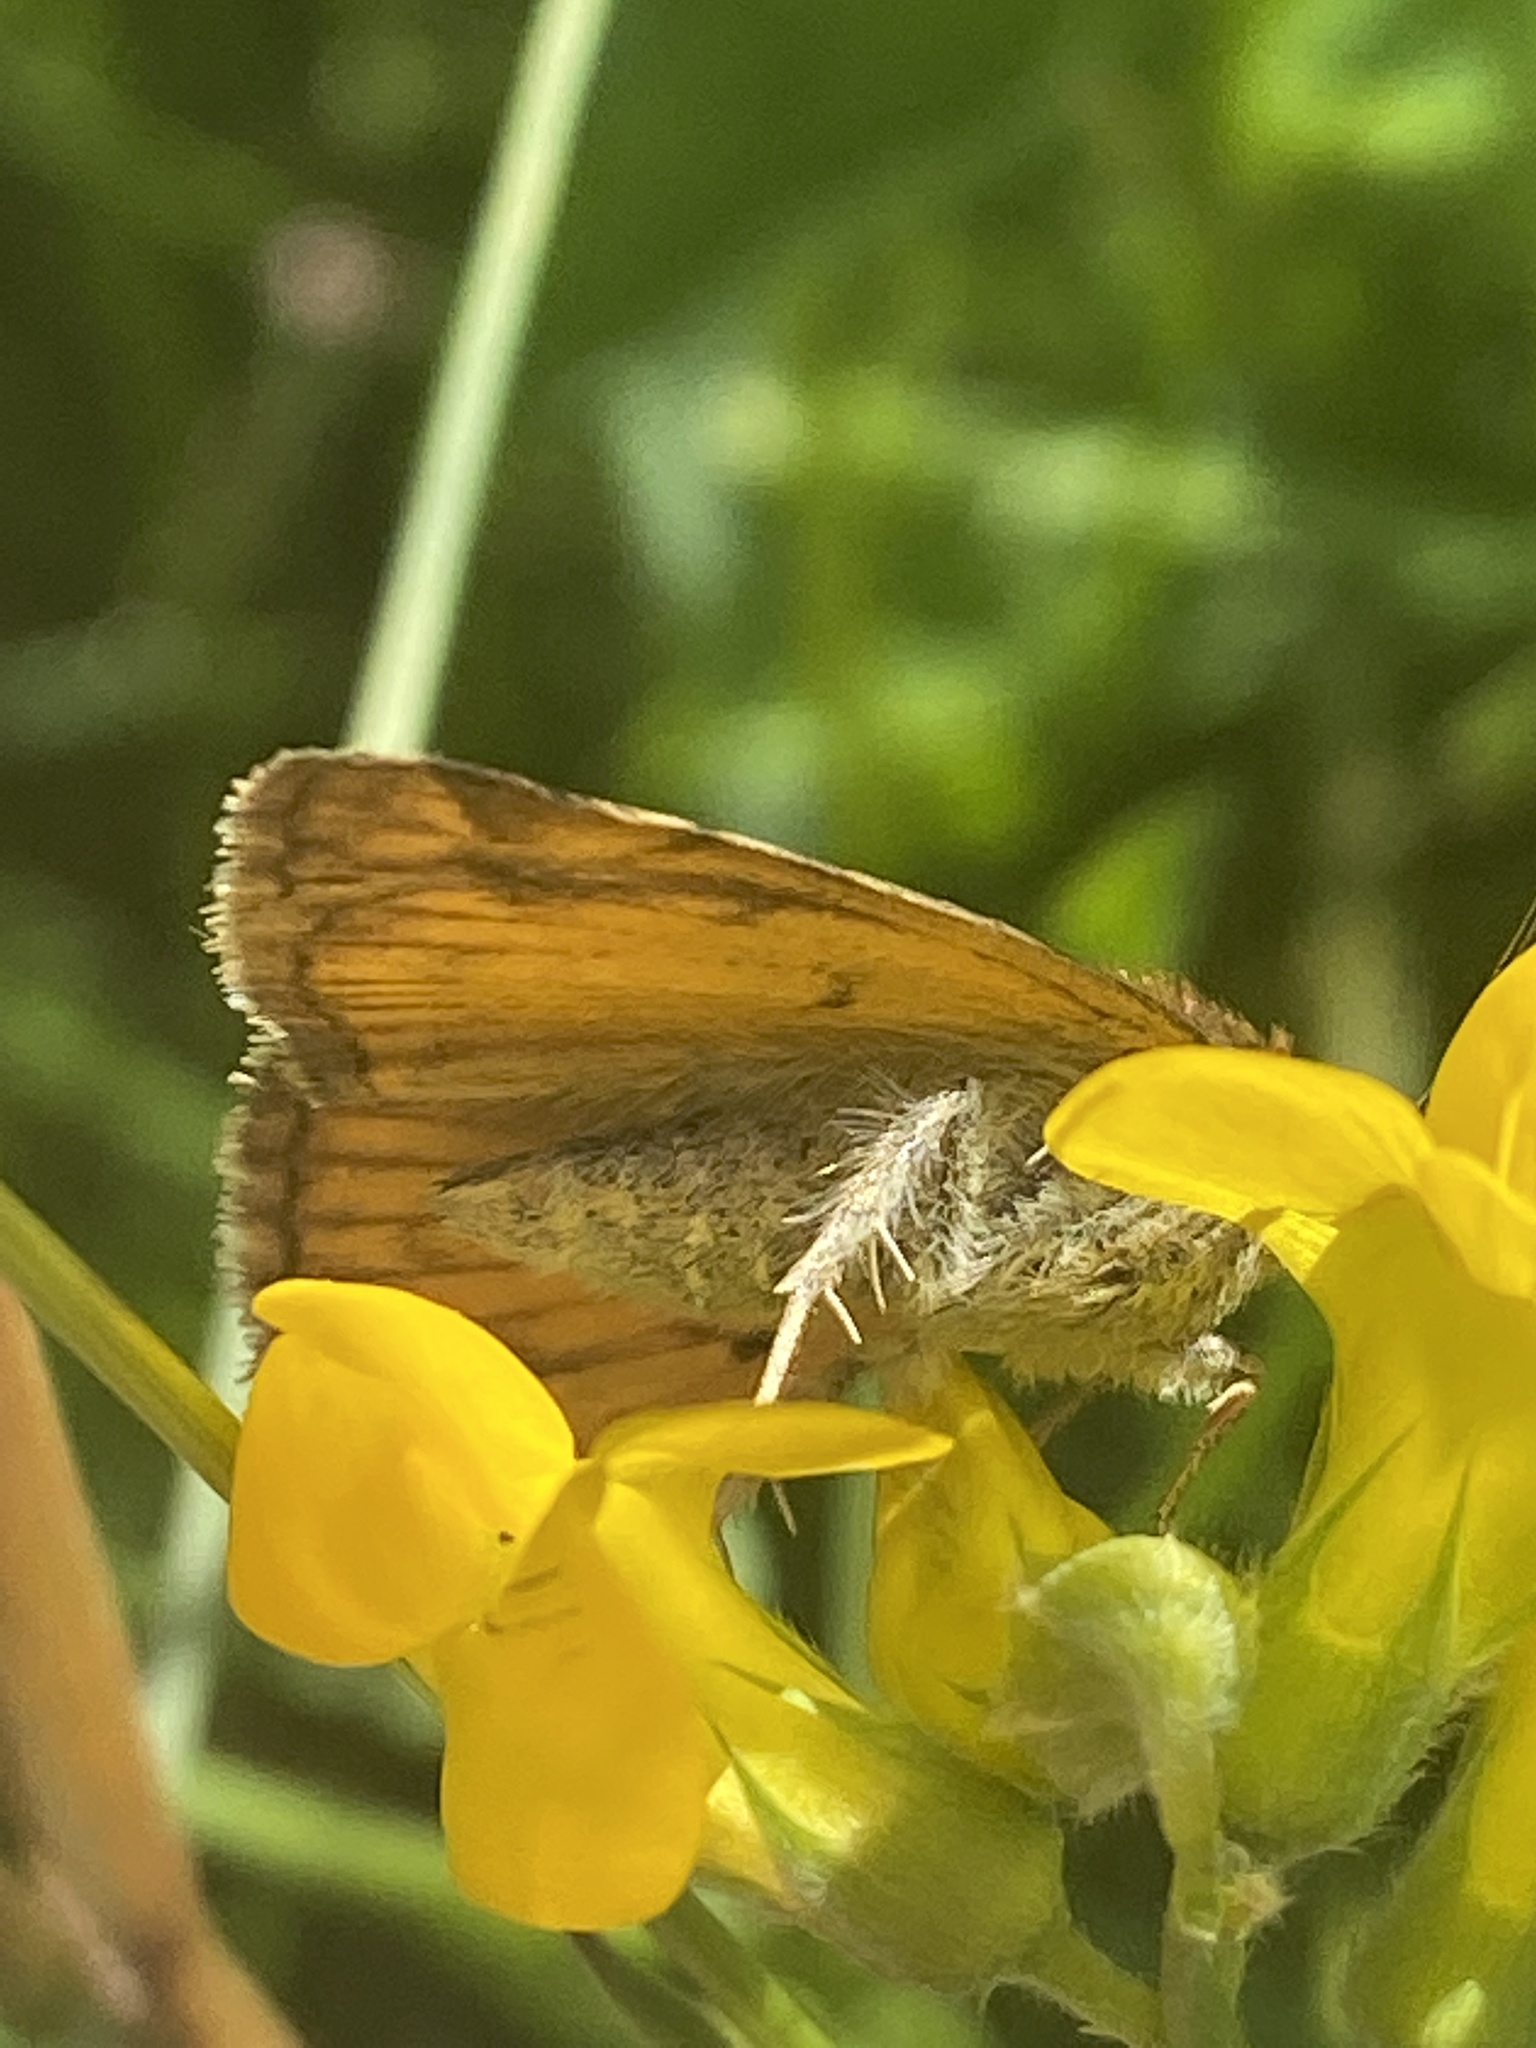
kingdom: Animalia
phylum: Arthropoda
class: Insecta
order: Lepidoptera
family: Erebidae
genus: Euclidia
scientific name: Euclidia glyphica
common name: Burnet companion
